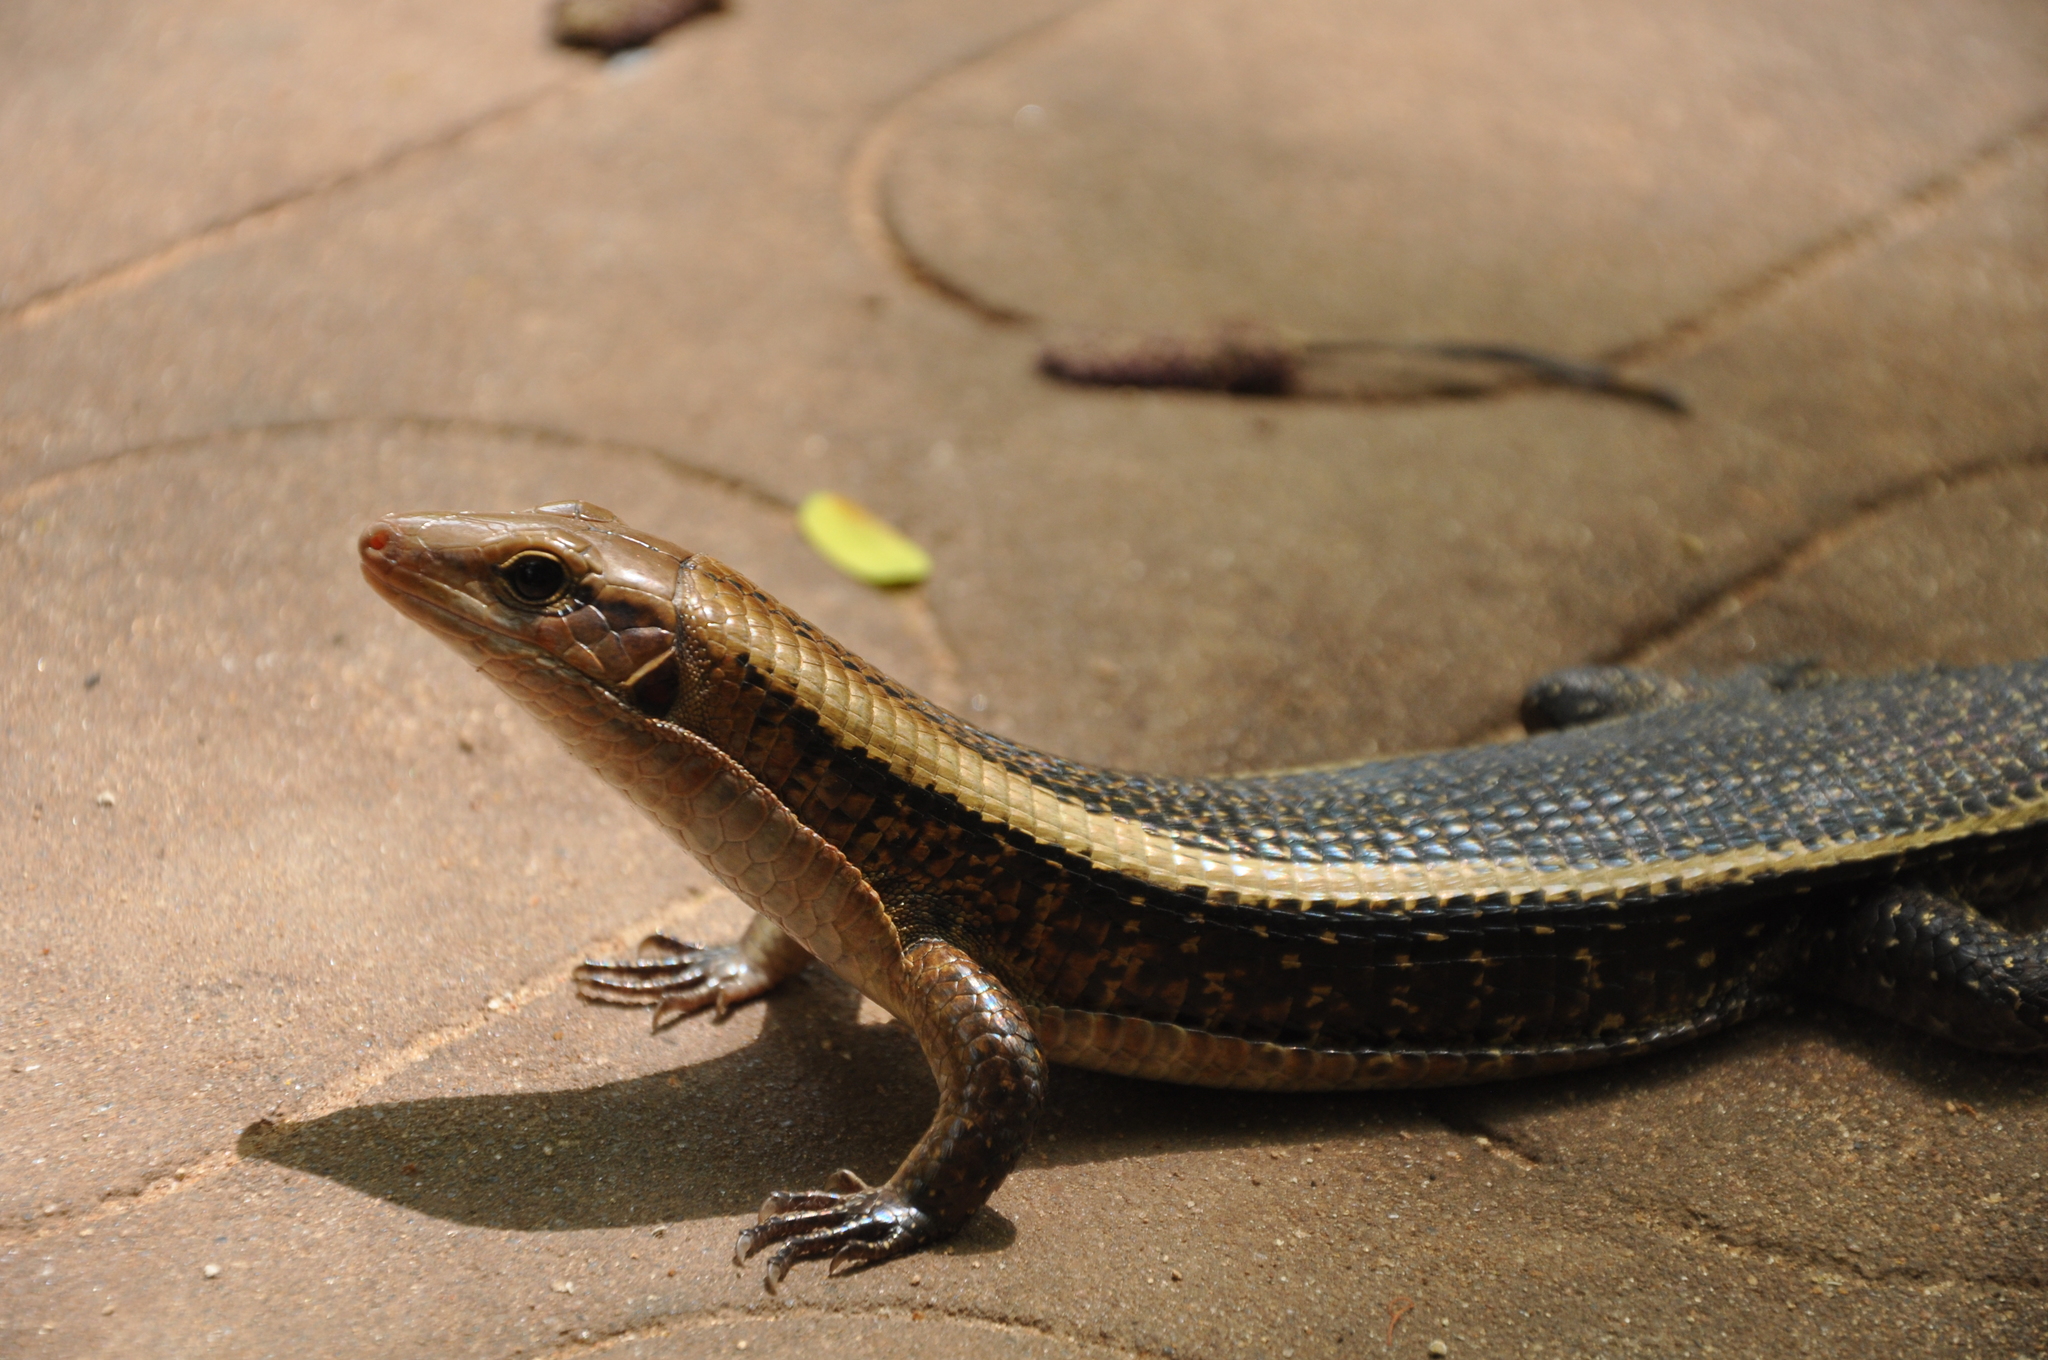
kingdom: Animalia
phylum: Chordata
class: Squamata
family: Gerrhosauridae
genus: Zonosaurus
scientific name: Zonosaurus laticaudatus
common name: Western girdled lizard
